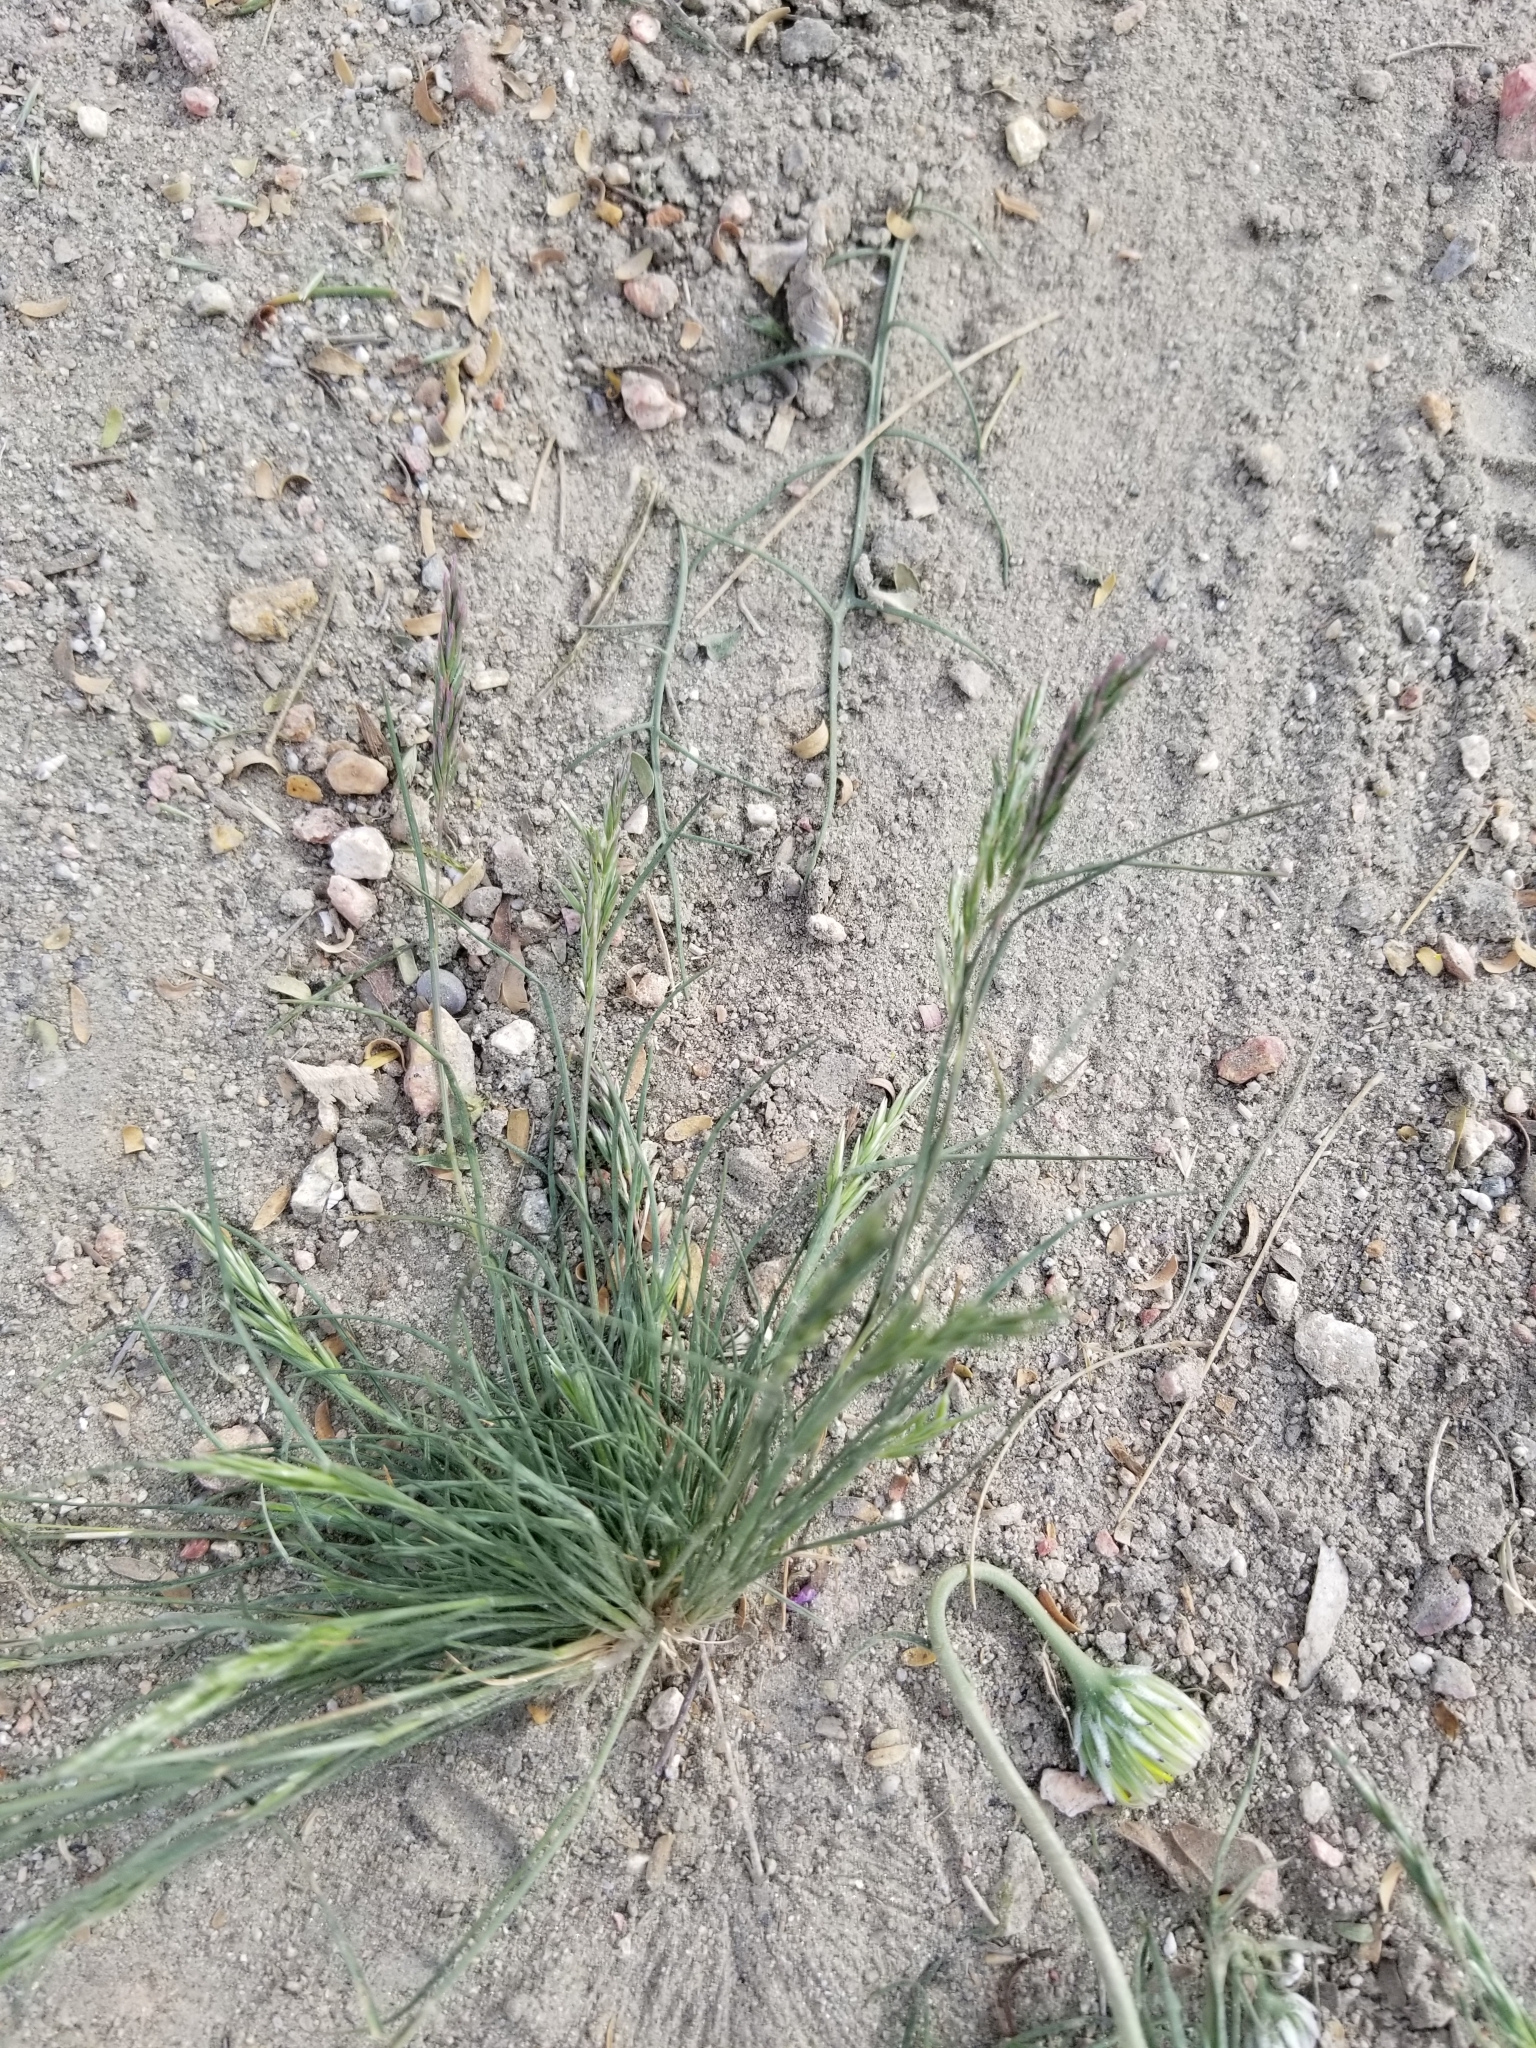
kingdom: Plantae
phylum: Tracheophyta
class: Liliopsida
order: Poales
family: Poaceae
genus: Schismus
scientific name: Schismus barbatus
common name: Kelch-grass
